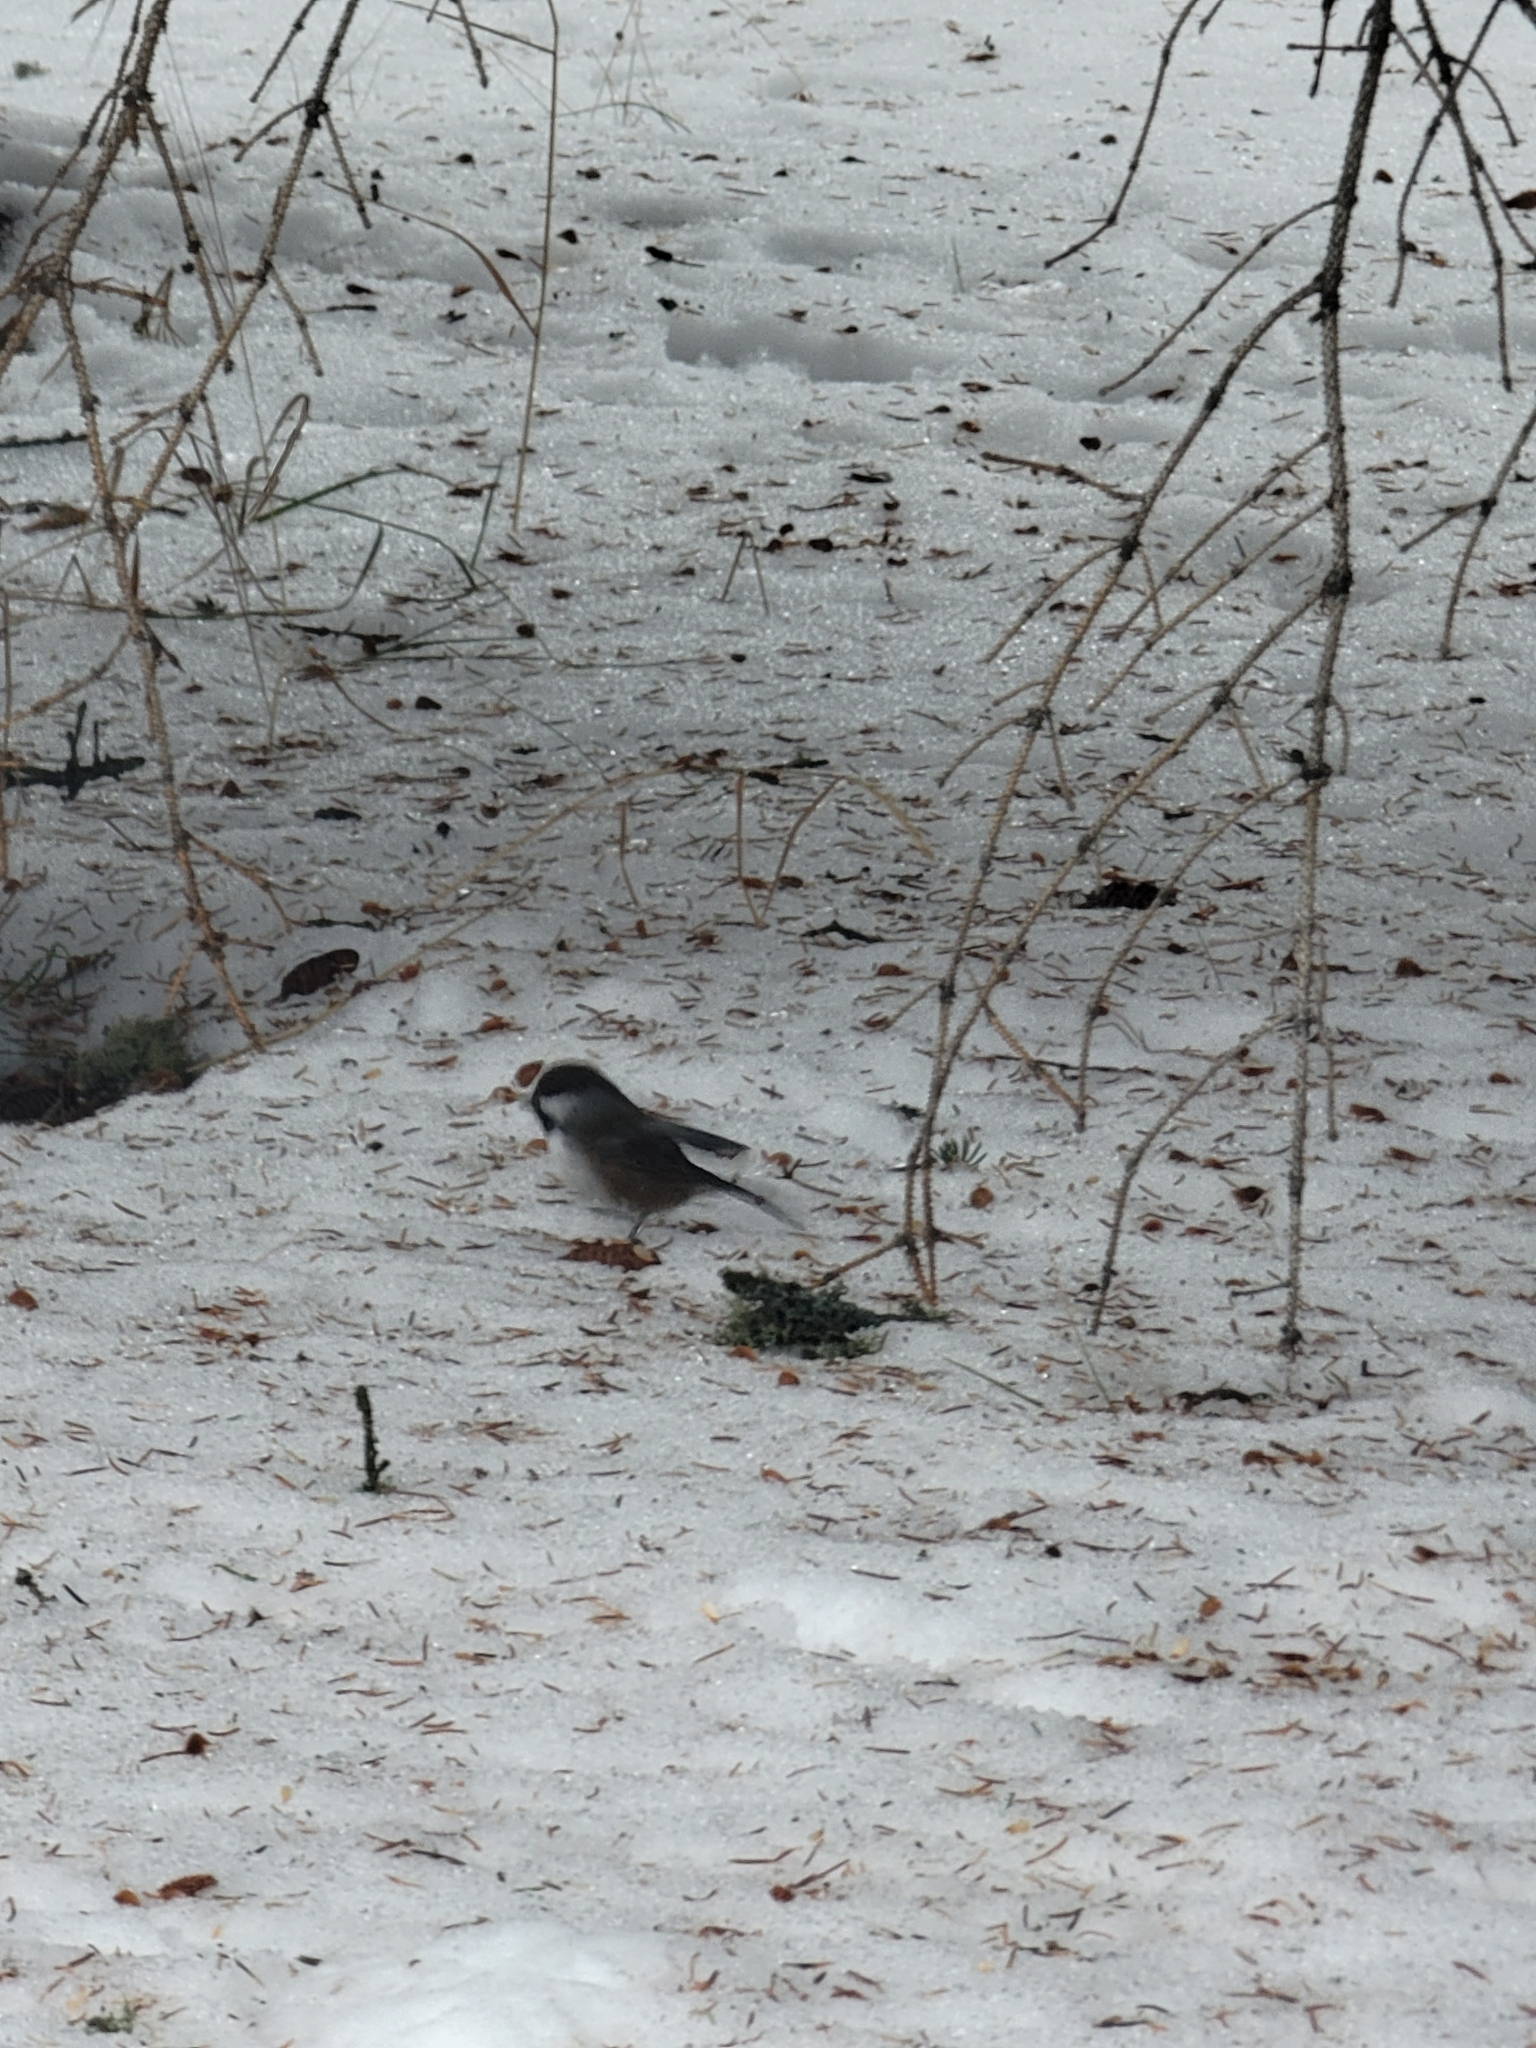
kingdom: Animalia
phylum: Chordata
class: Aves
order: Passeriformes
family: Paridae
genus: Poecile
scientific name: Poecile hudsonicus
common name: Boreal chickadee
